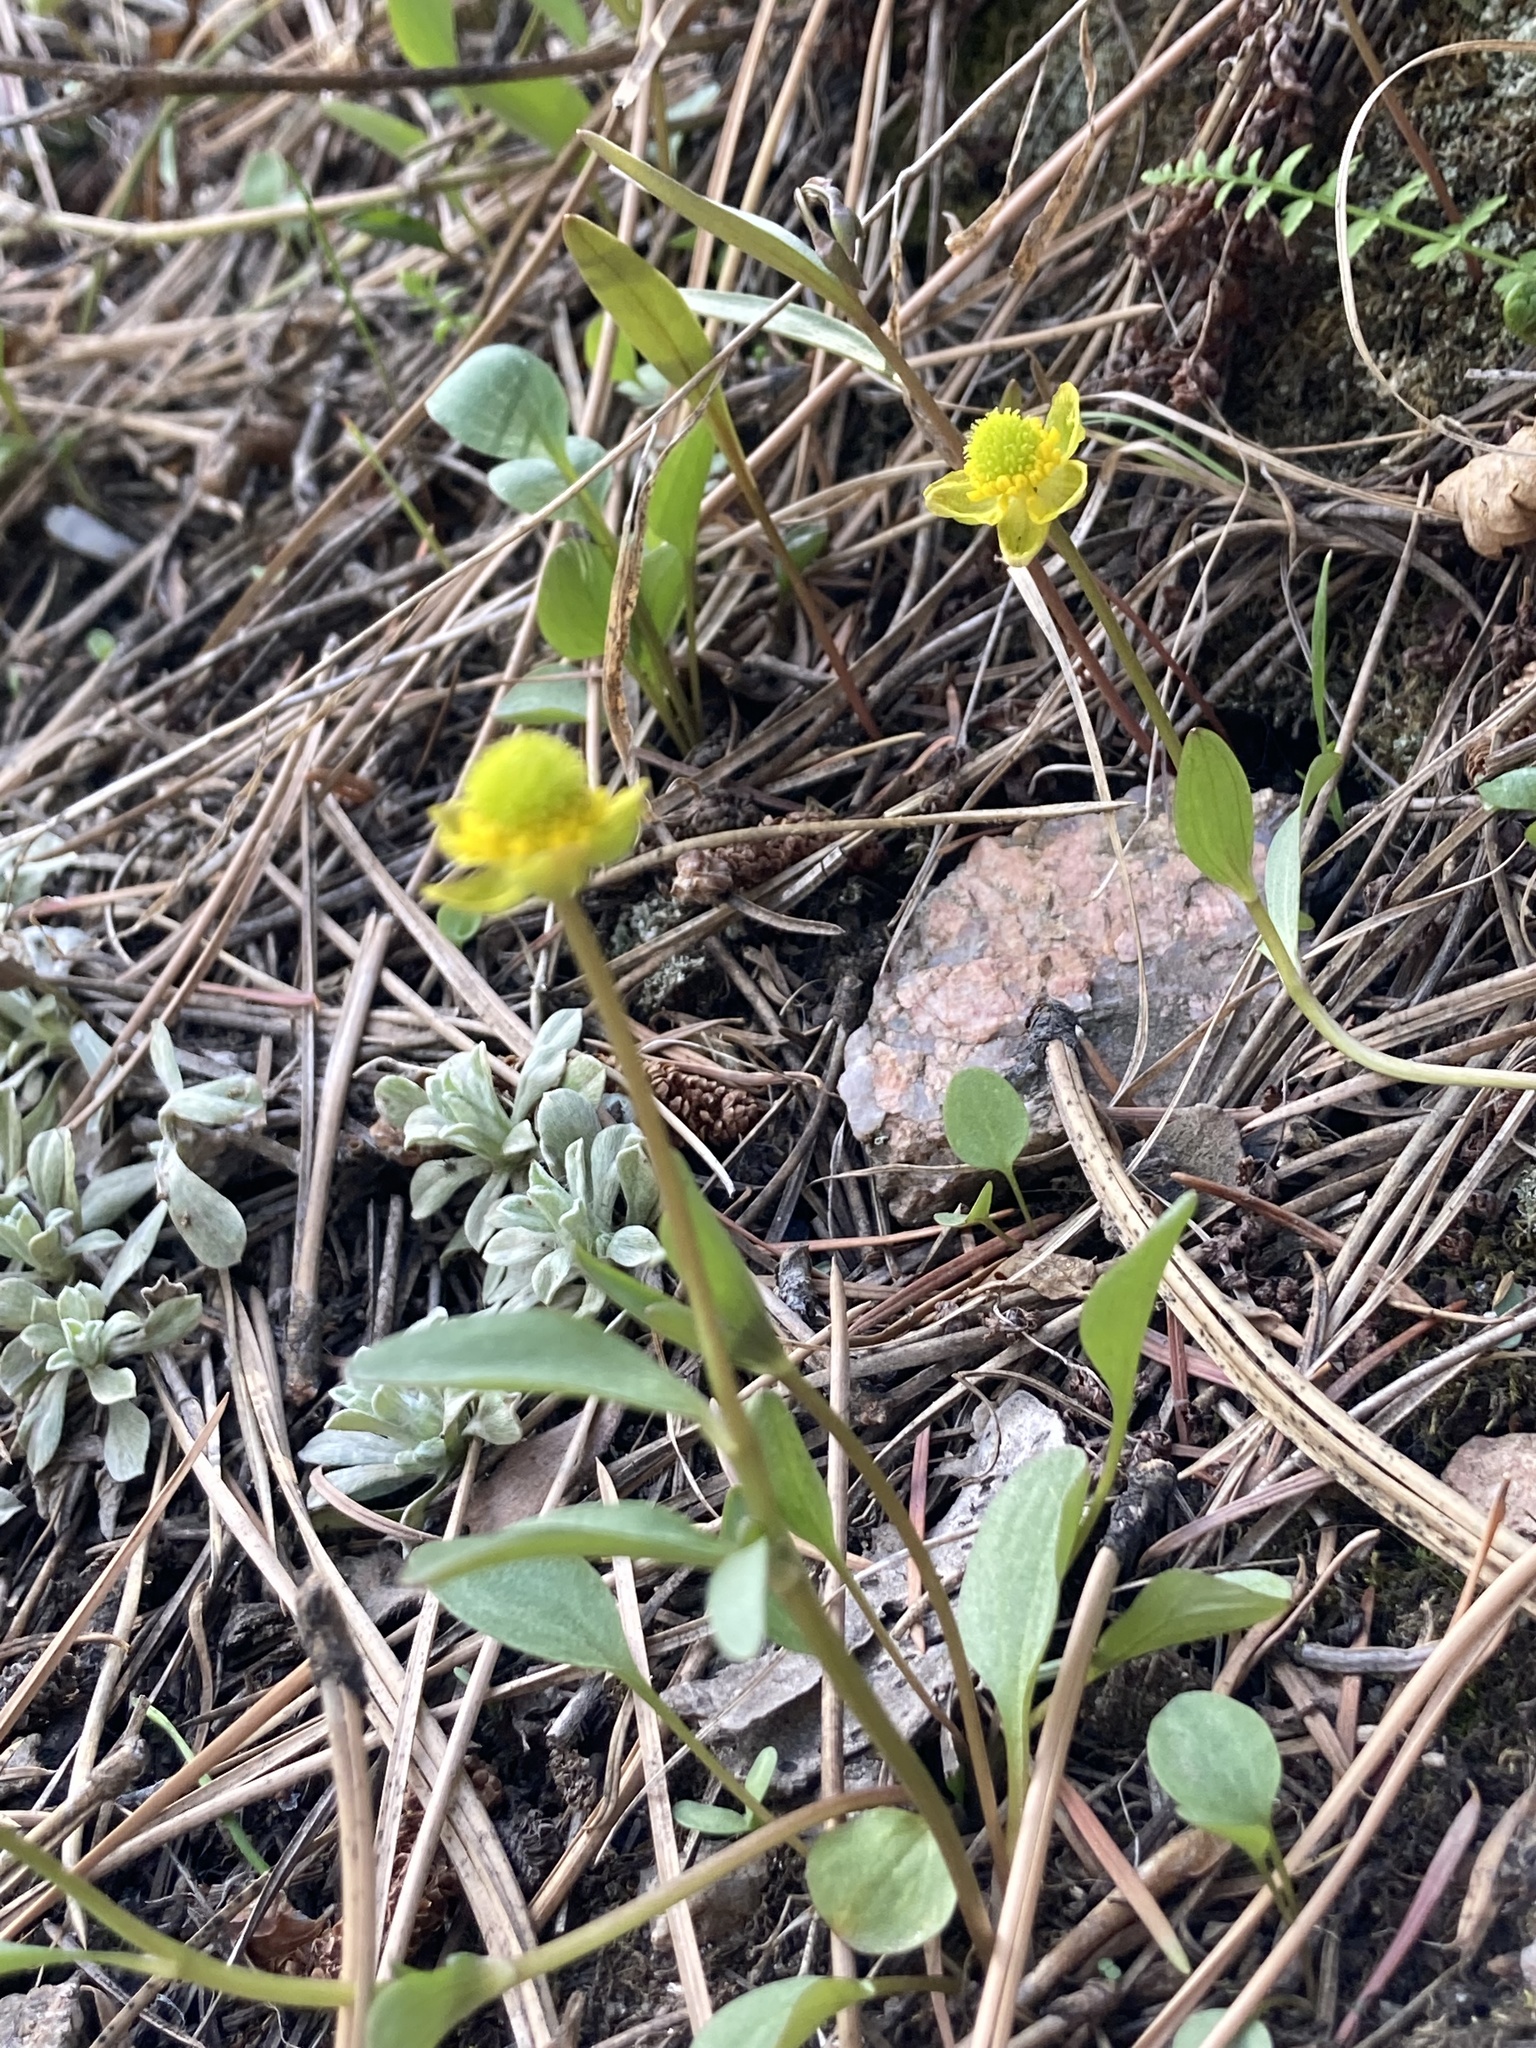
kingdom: Plantae
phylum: Tracheophyta
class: Magnoliopsida
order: Ranunculales
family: Ranunculaceae
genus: Ranunculus
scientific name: Ranunculus glaberrimus
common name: Sagebrush buttercup
